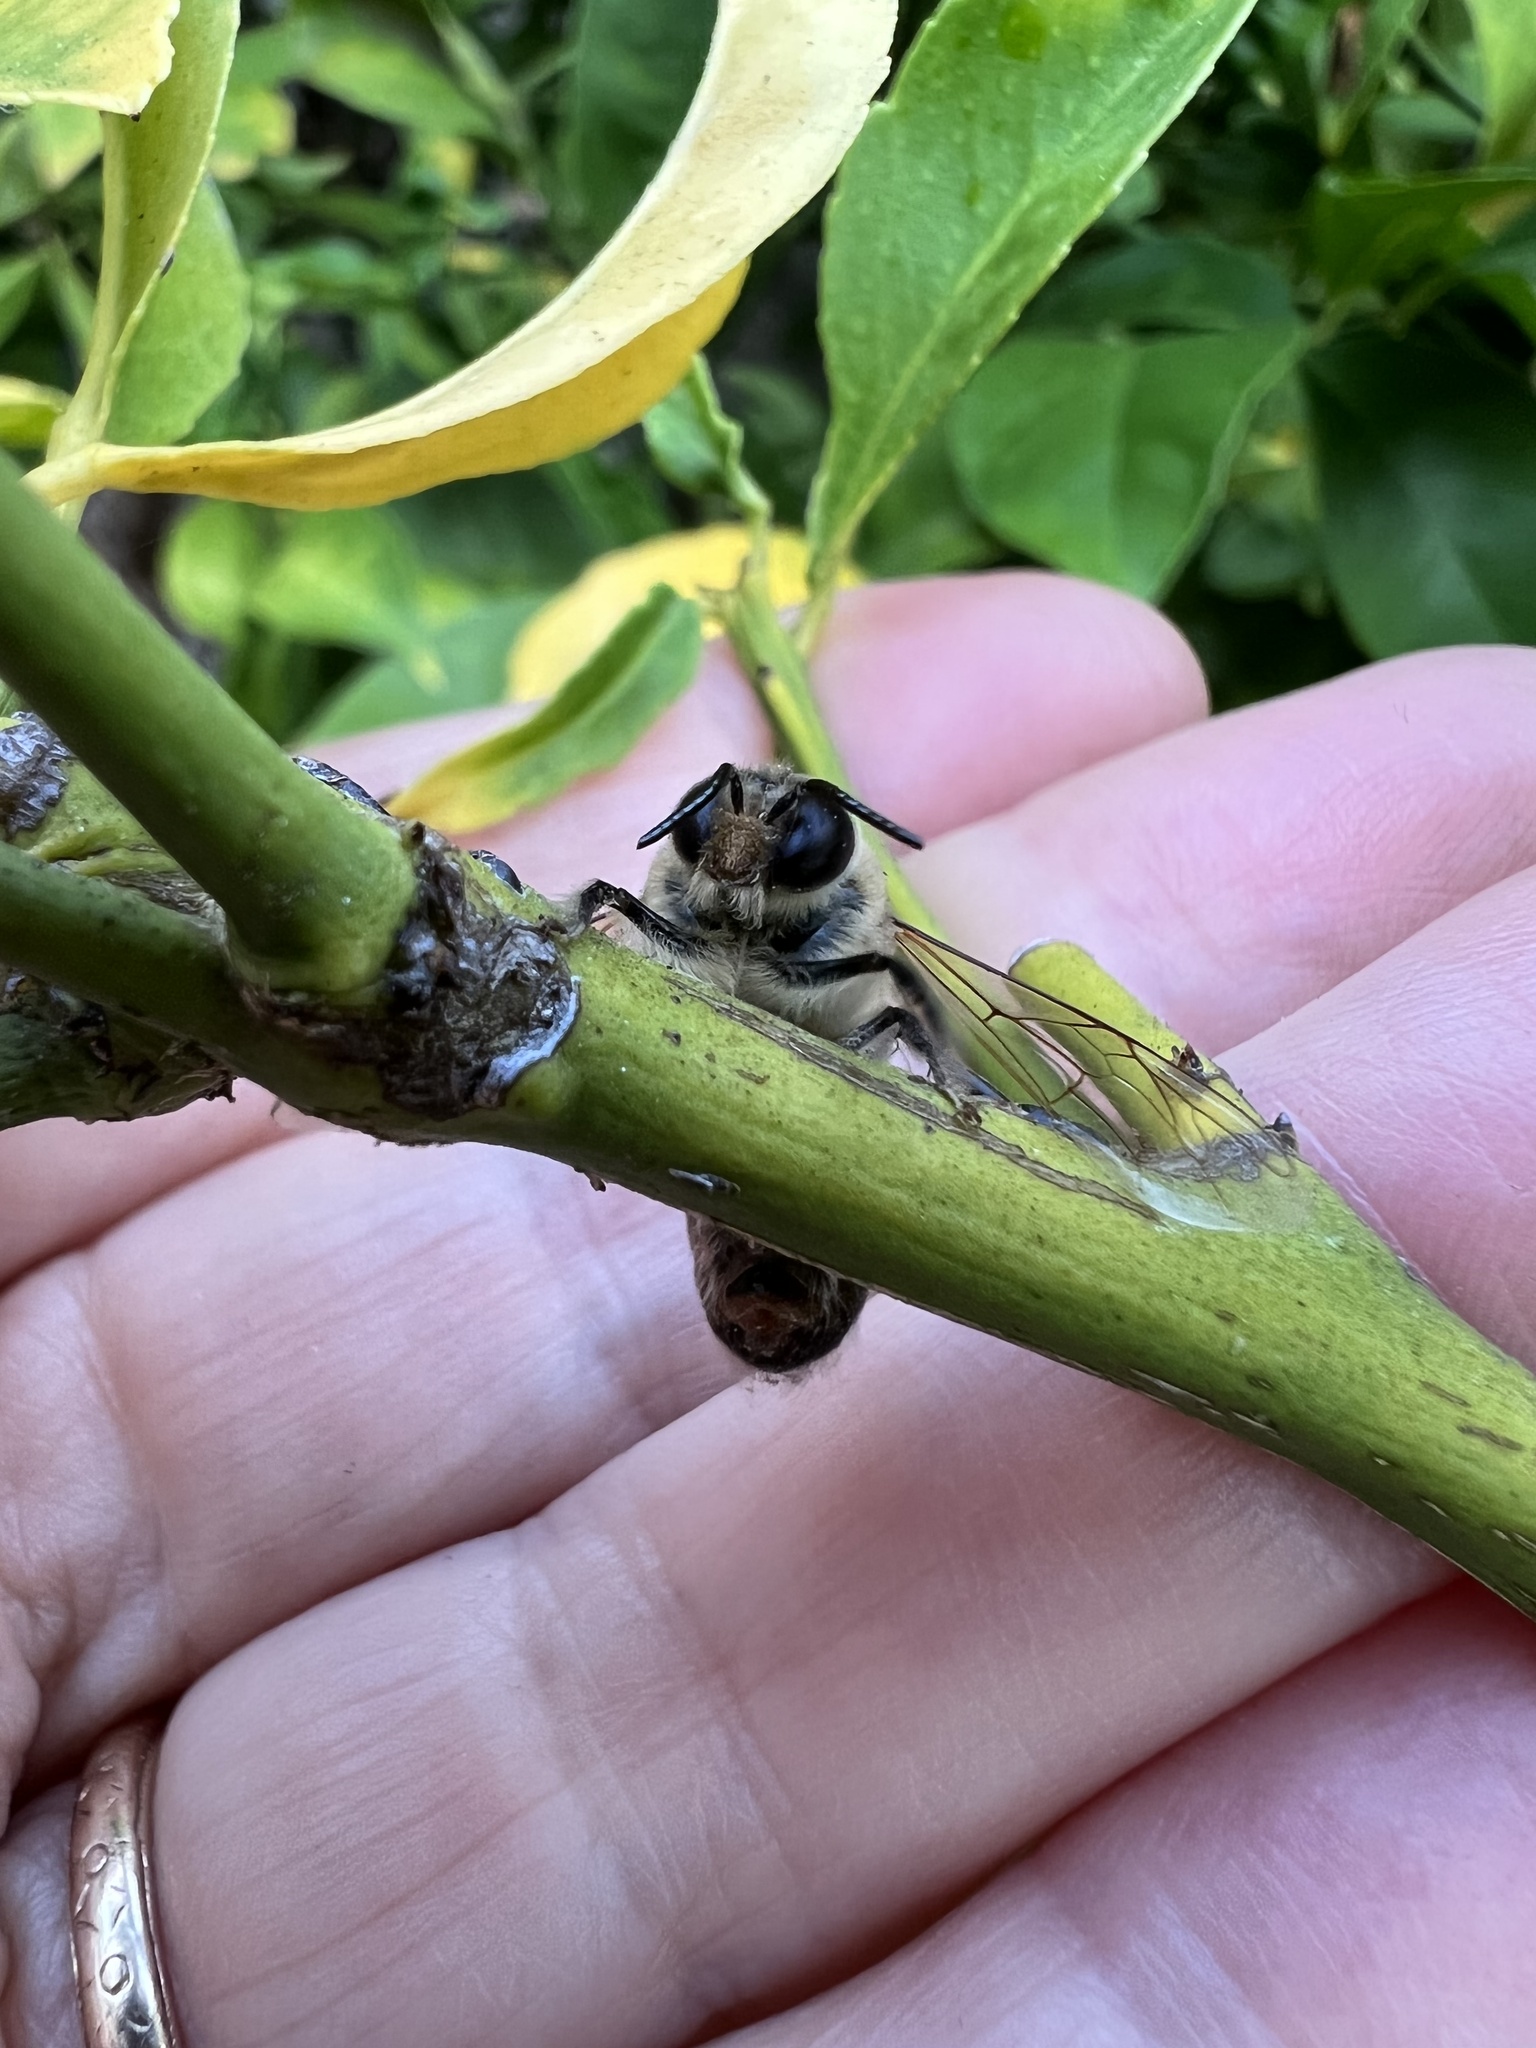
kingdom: Animalia
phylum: Arthropoda
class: Insecta
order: Hymenoptera
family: Apidae
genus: Apis
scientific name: Apis mellifera
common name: Honey bee
